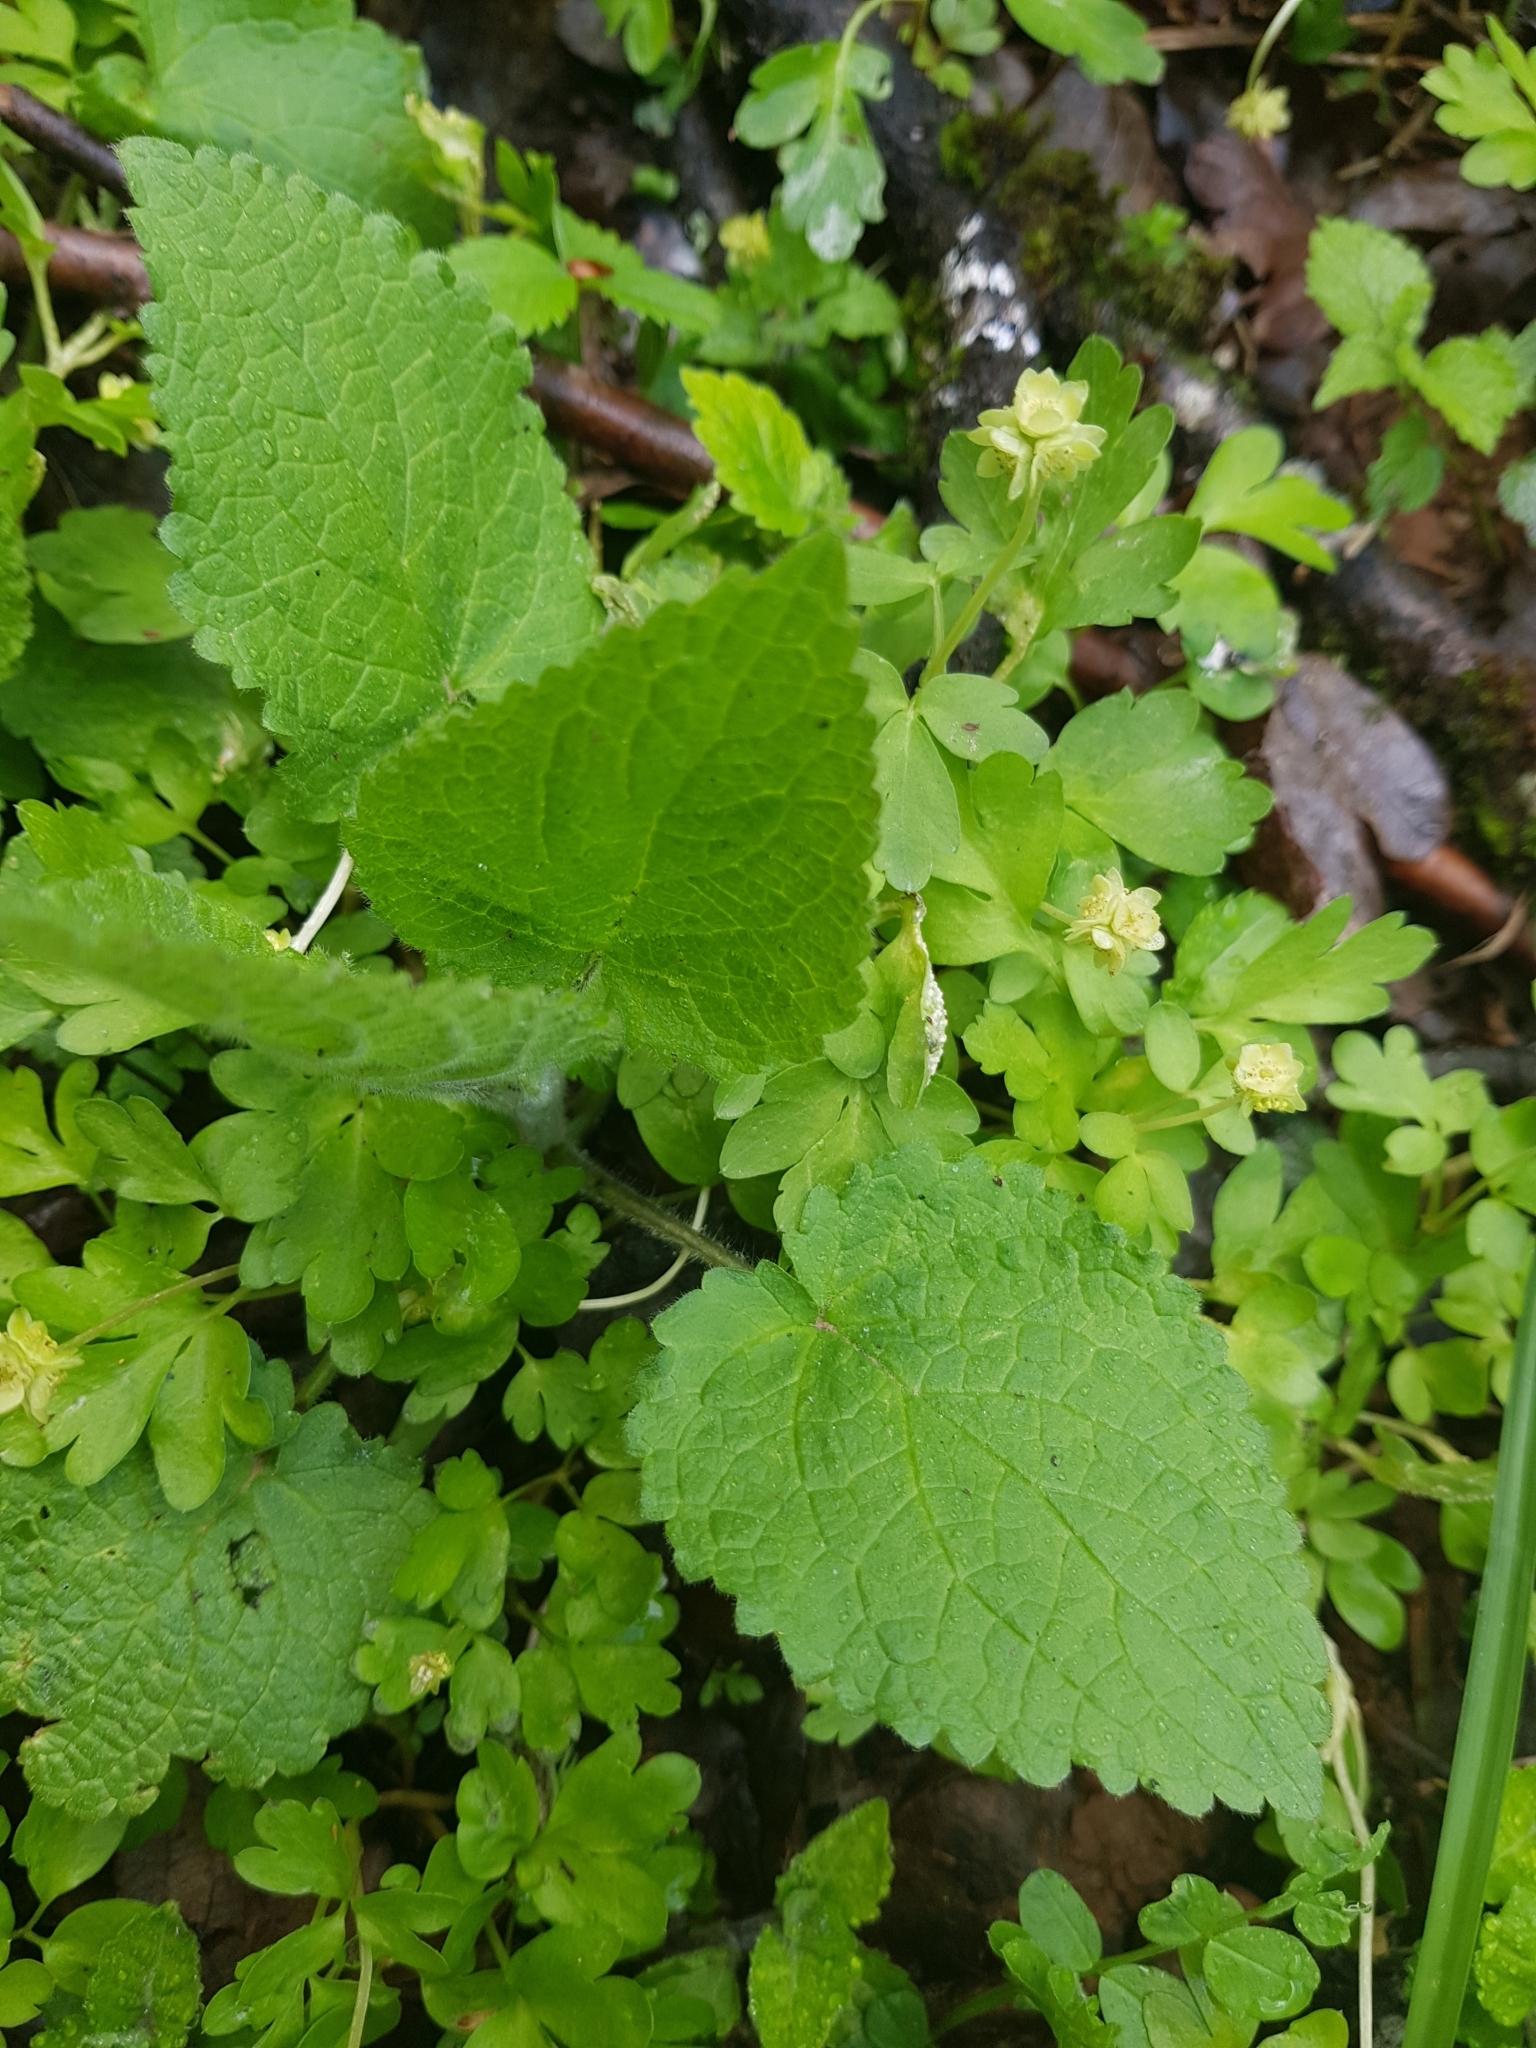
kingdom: Plantae
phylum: Tracheophyta
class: Magnoliopsida
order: Lamiales
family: Lamiaceae
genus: Stachys
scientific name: Stachys sylvatica
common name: Hedge woundwort
